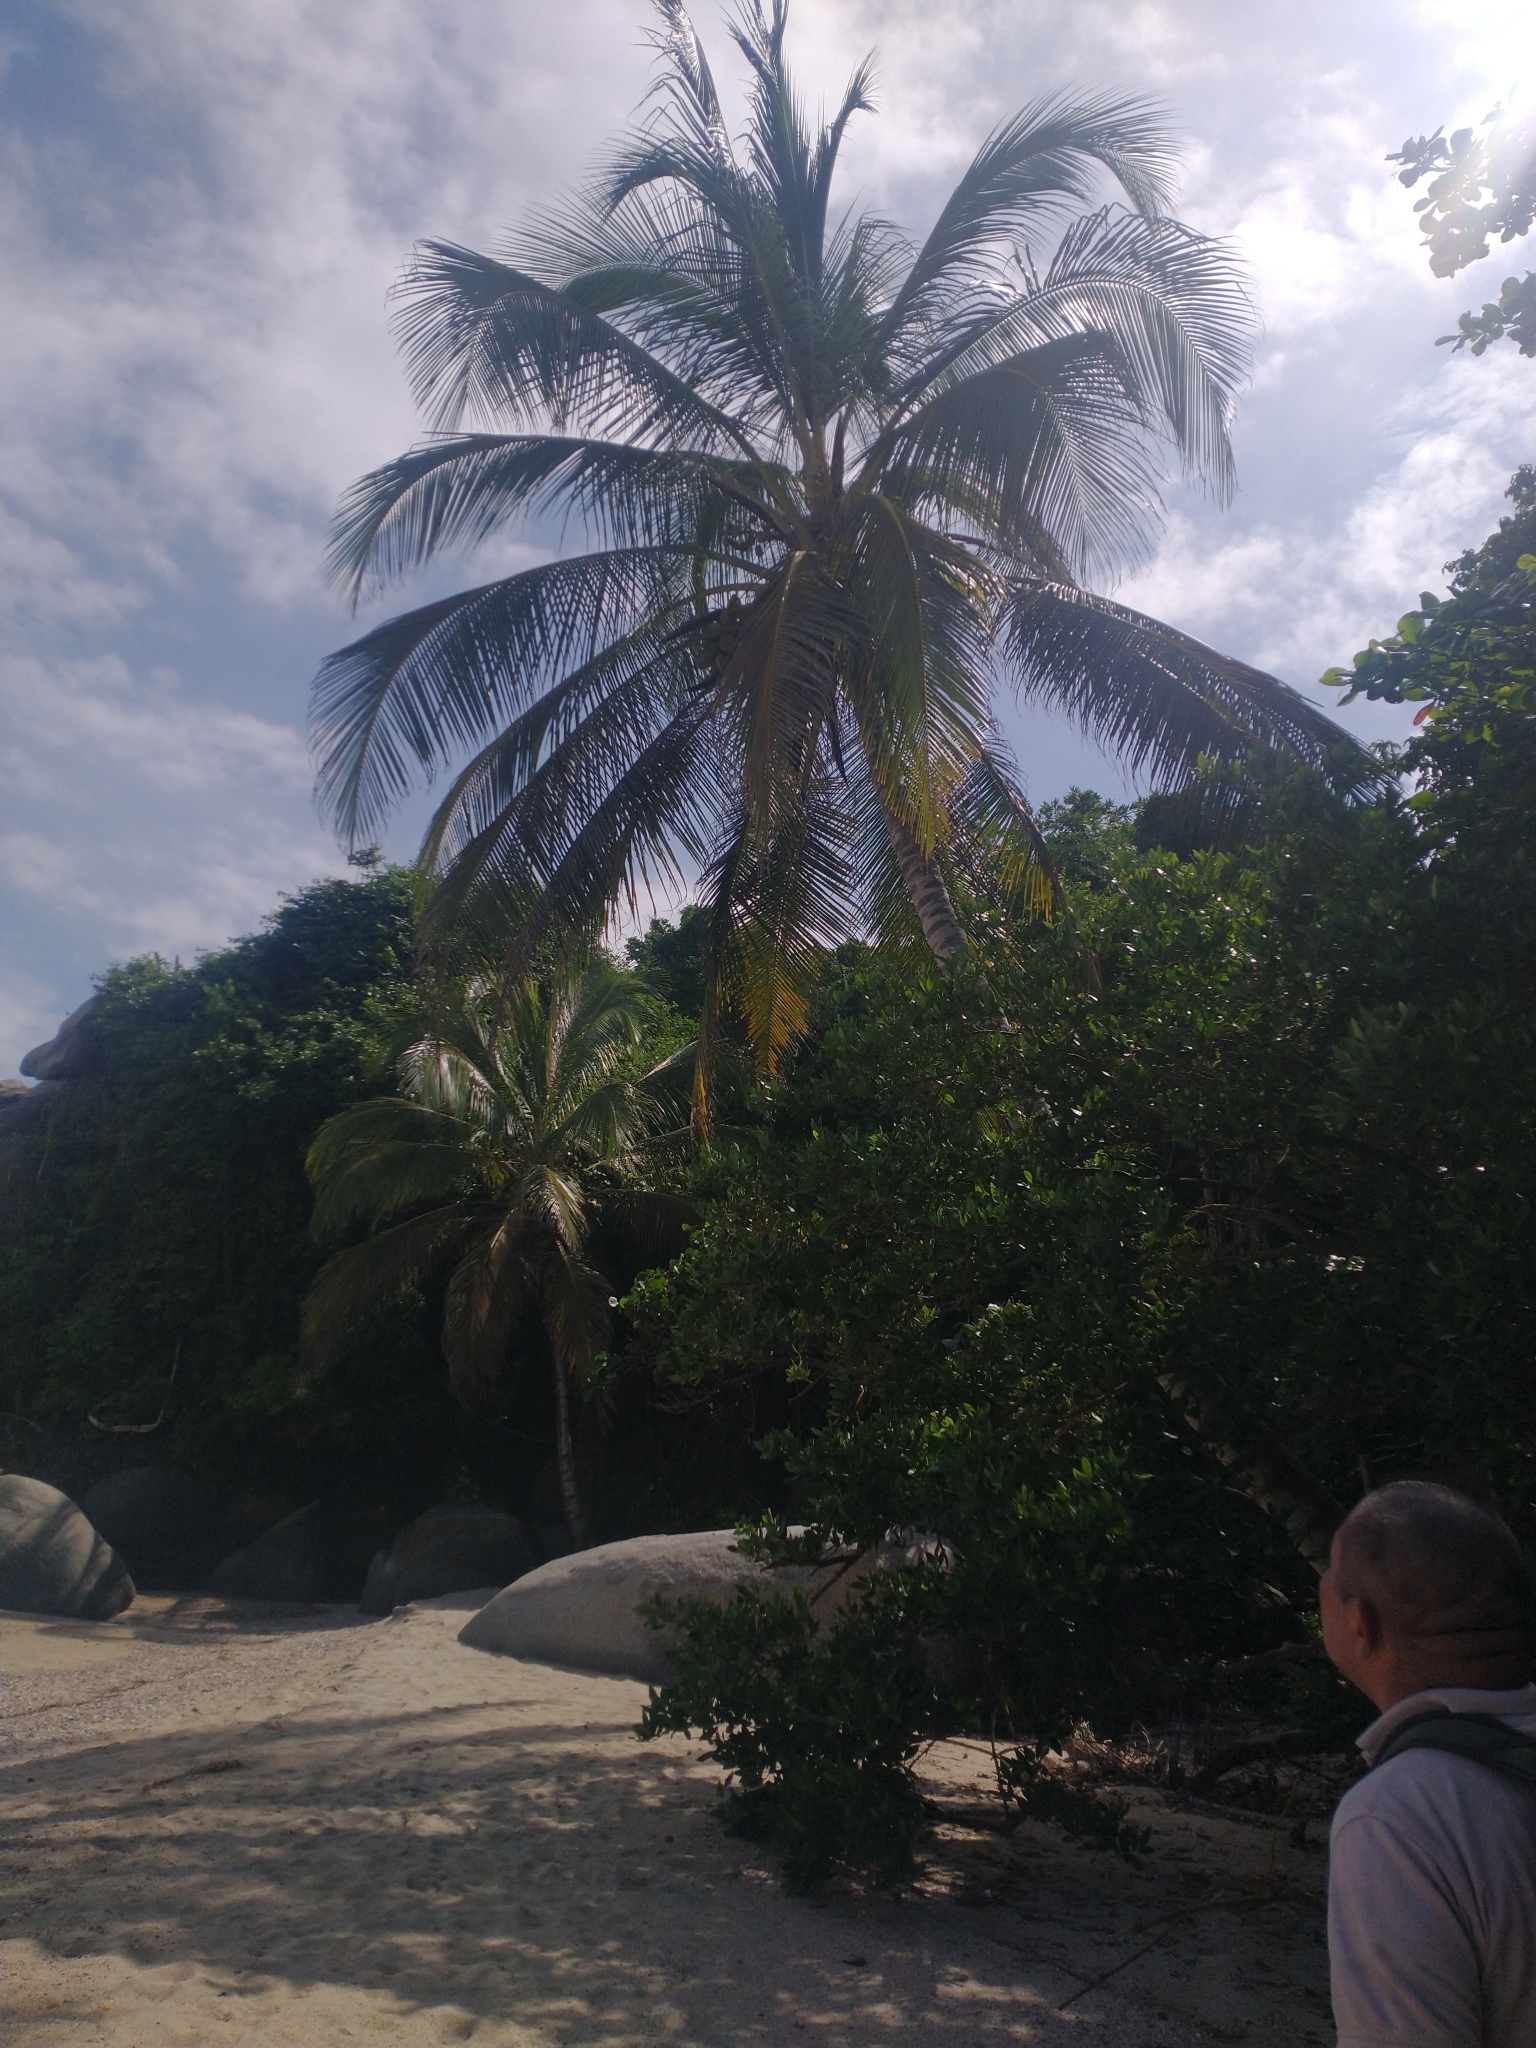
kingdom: Plantae
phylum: Tracheophyta
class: Liliopsida
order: Arecales
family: Arecaceae
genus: Cocos
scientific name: Cocos nucifera
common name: Coconut palm
